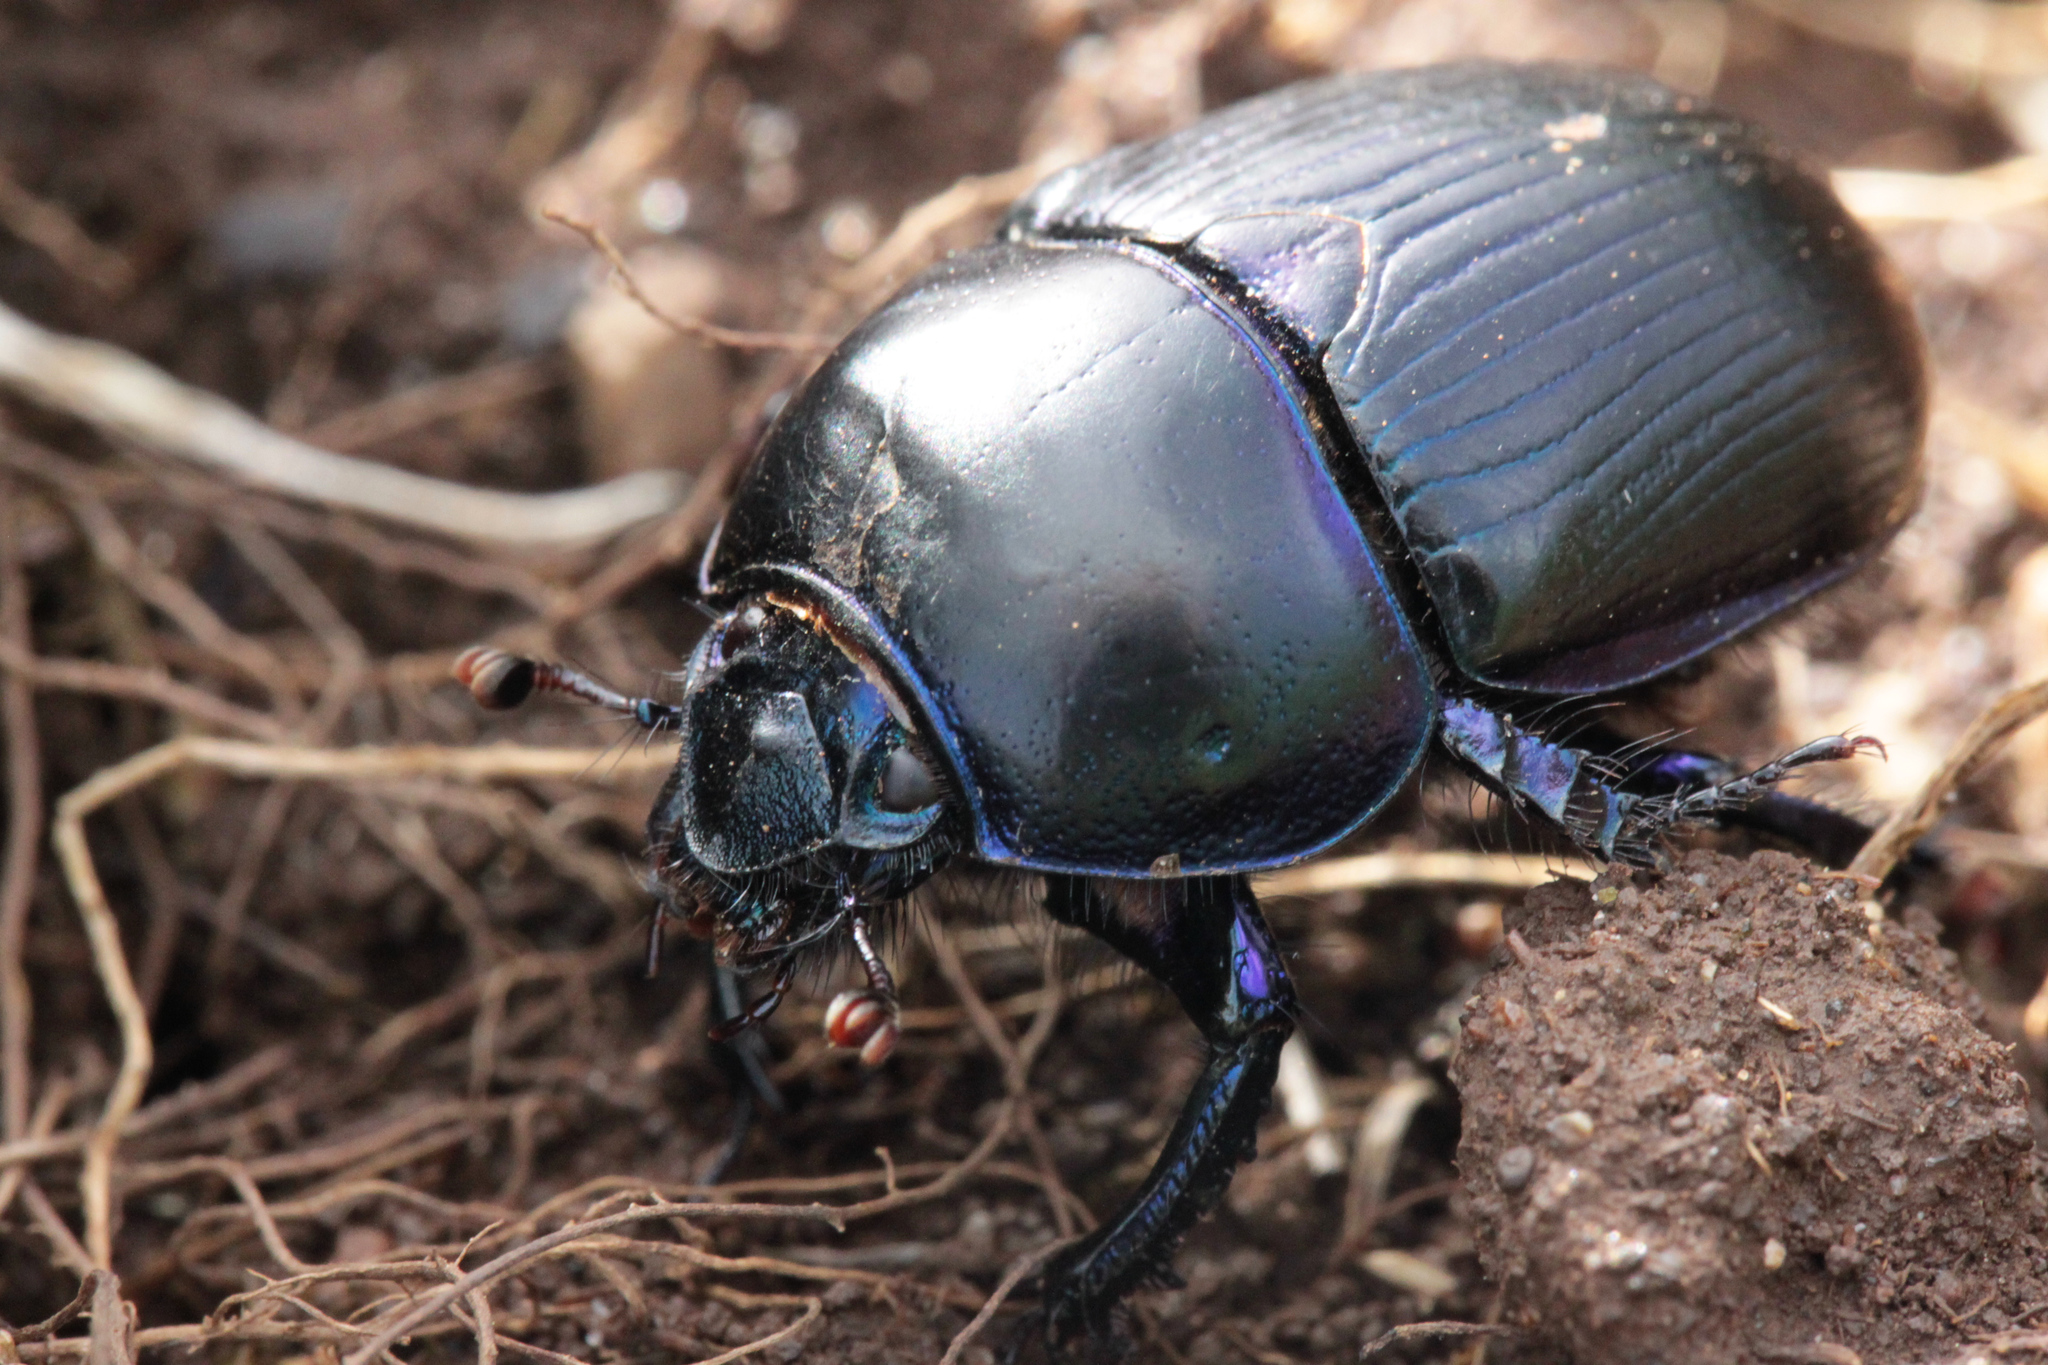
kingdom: Animalia
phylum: Arthropoda
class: Insecta
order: Coleoptera
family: Geotrupidae
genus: Geotrupes
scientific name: Geotrupes spiniger
